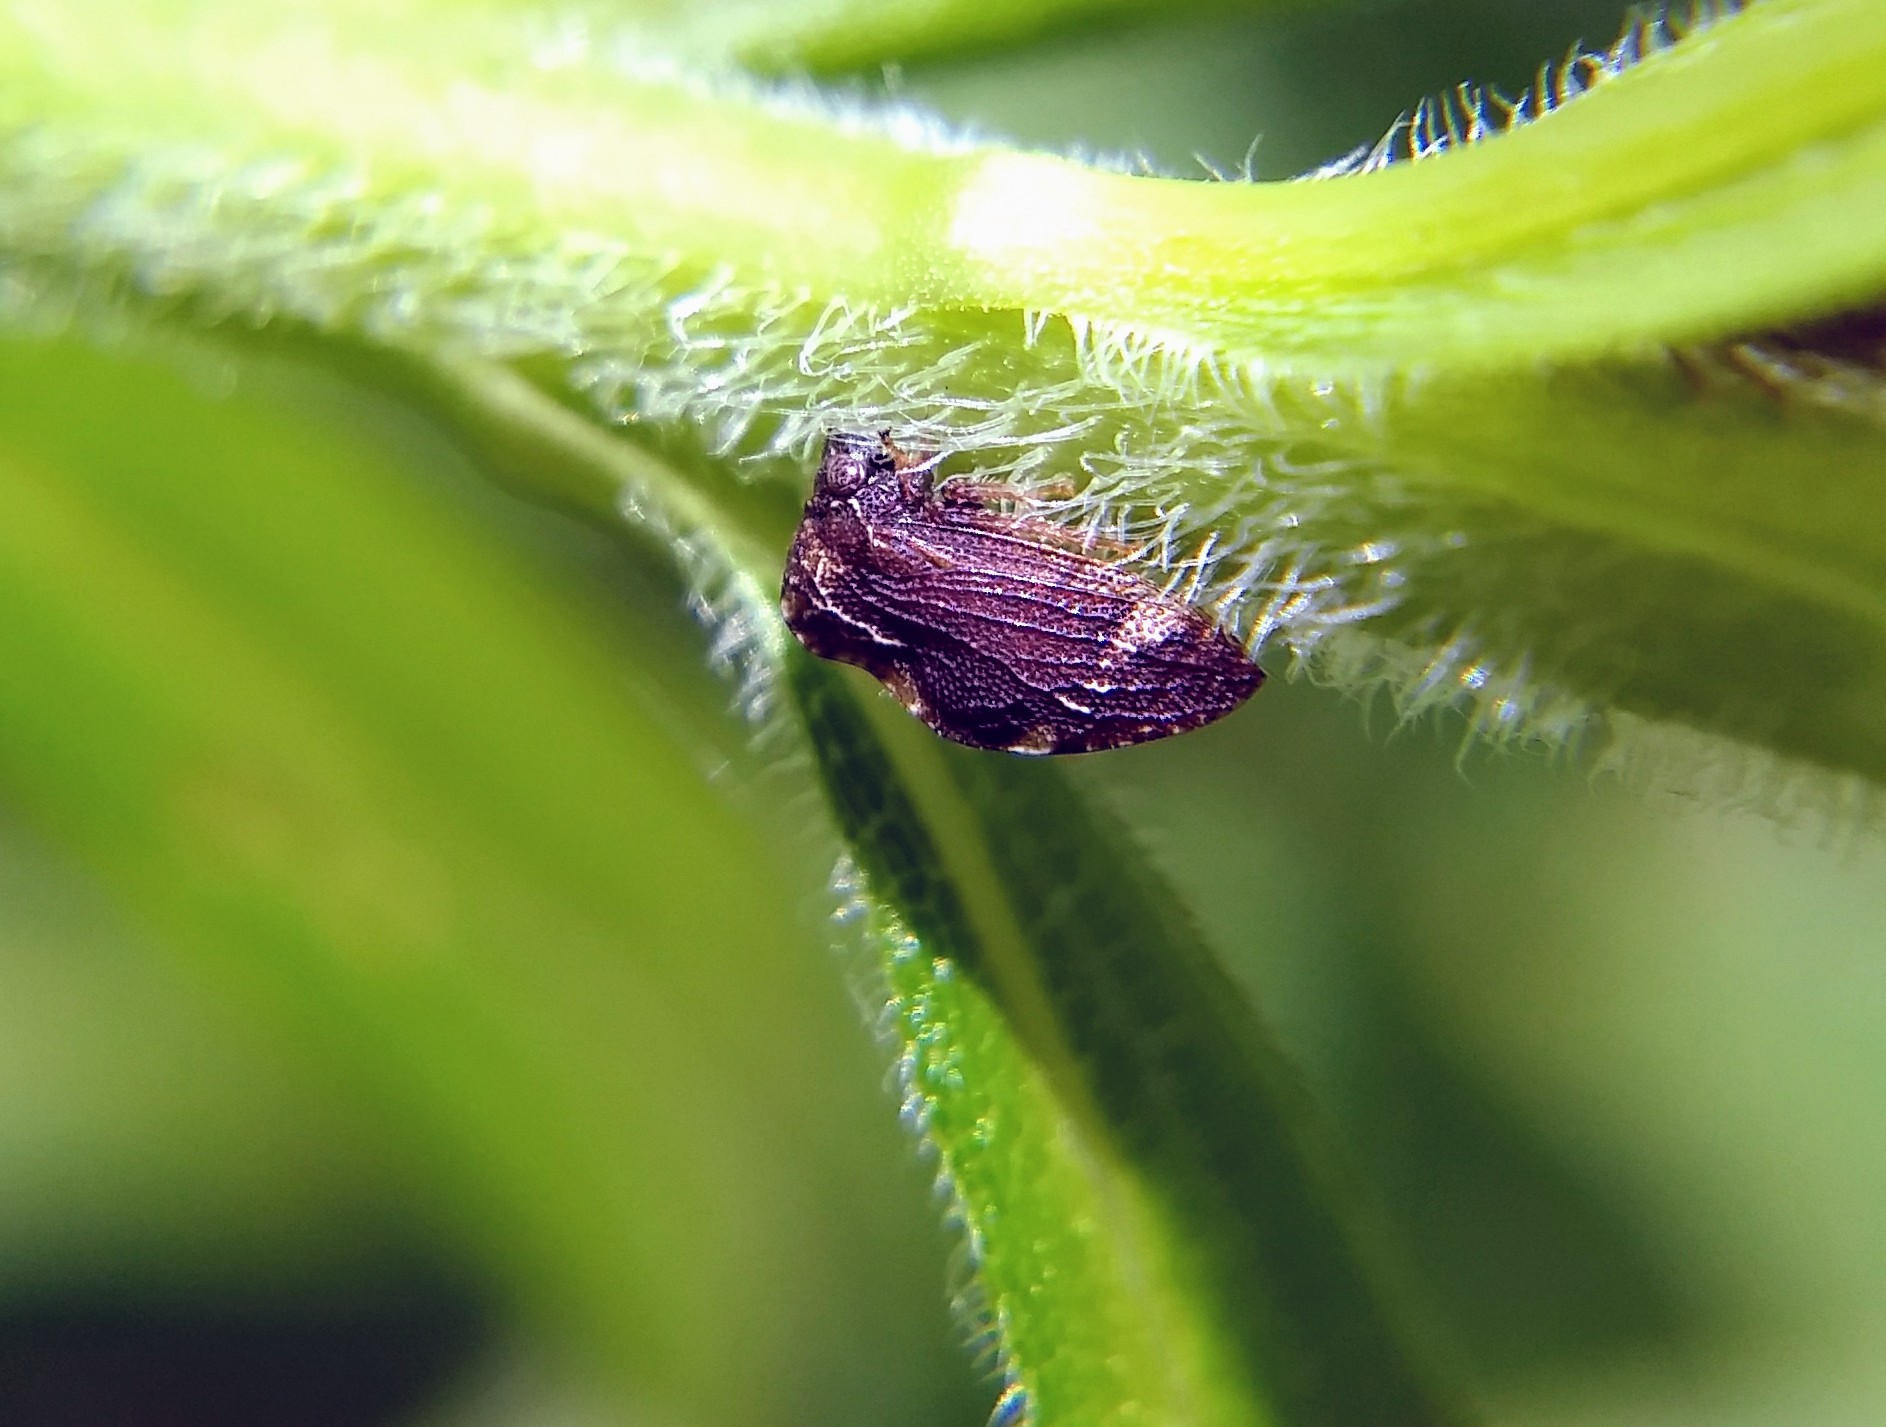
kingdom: Animalia
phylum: Arthropoda
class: Insecta
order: Hemiptera
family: Membracidae
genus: Publilia
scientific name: Publilia concava
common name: Aster treehopper
